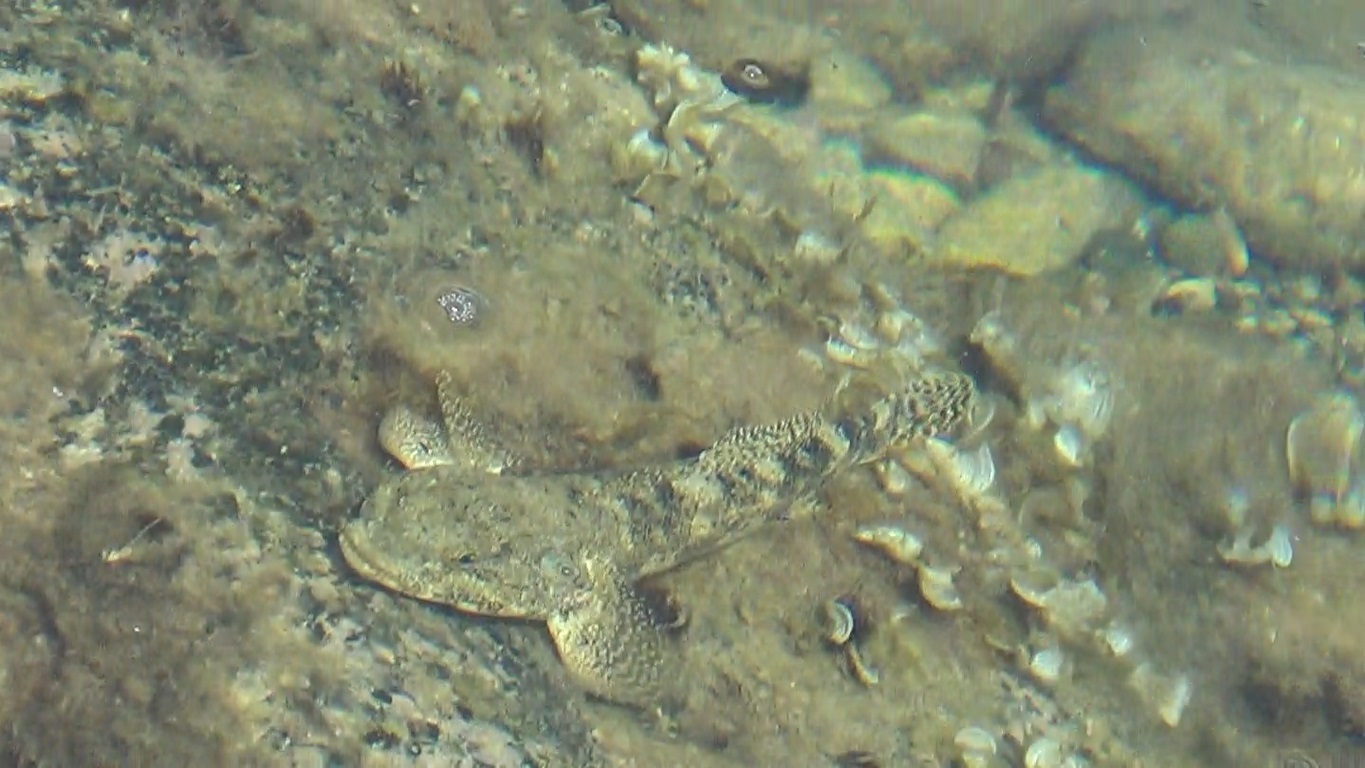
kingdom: Animalia
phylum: Chordata
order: Perciformes
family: Gobiidae
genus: Gobius
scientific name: Gobius cobitis
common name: Giant goby
